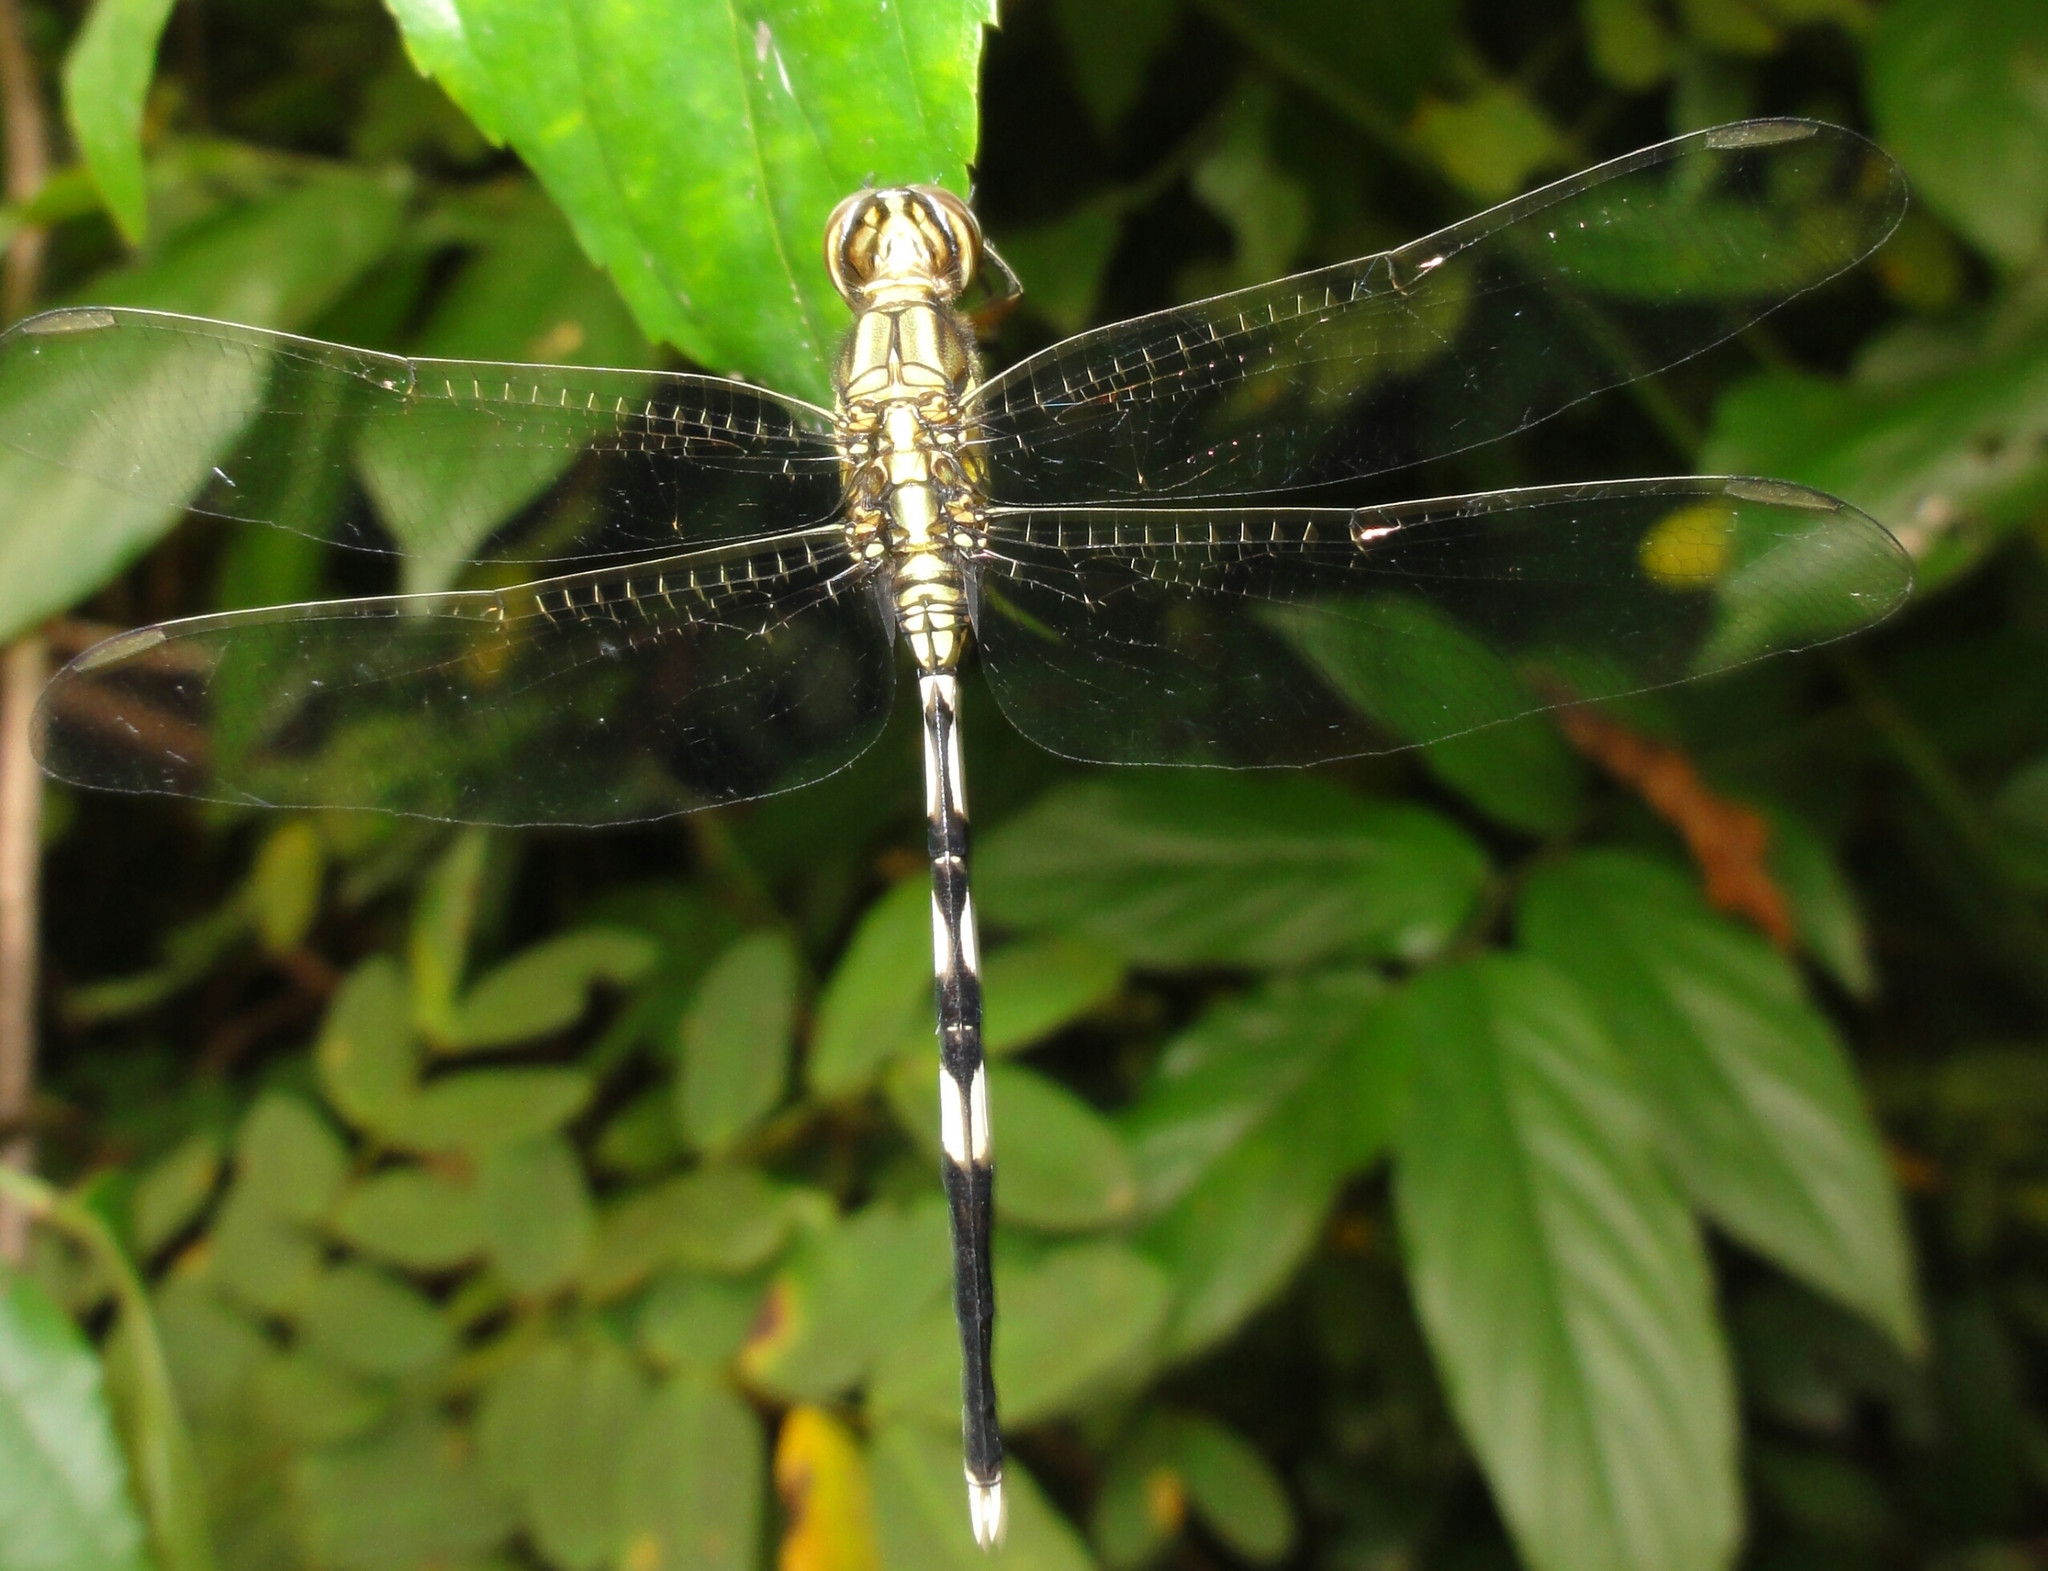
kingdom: Animalia
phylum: Arthropoda
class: Insecta
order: Odonata
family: Libellulidae
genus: Orthetrum
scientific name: Orthetrum sabina
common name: Slender skimmer
